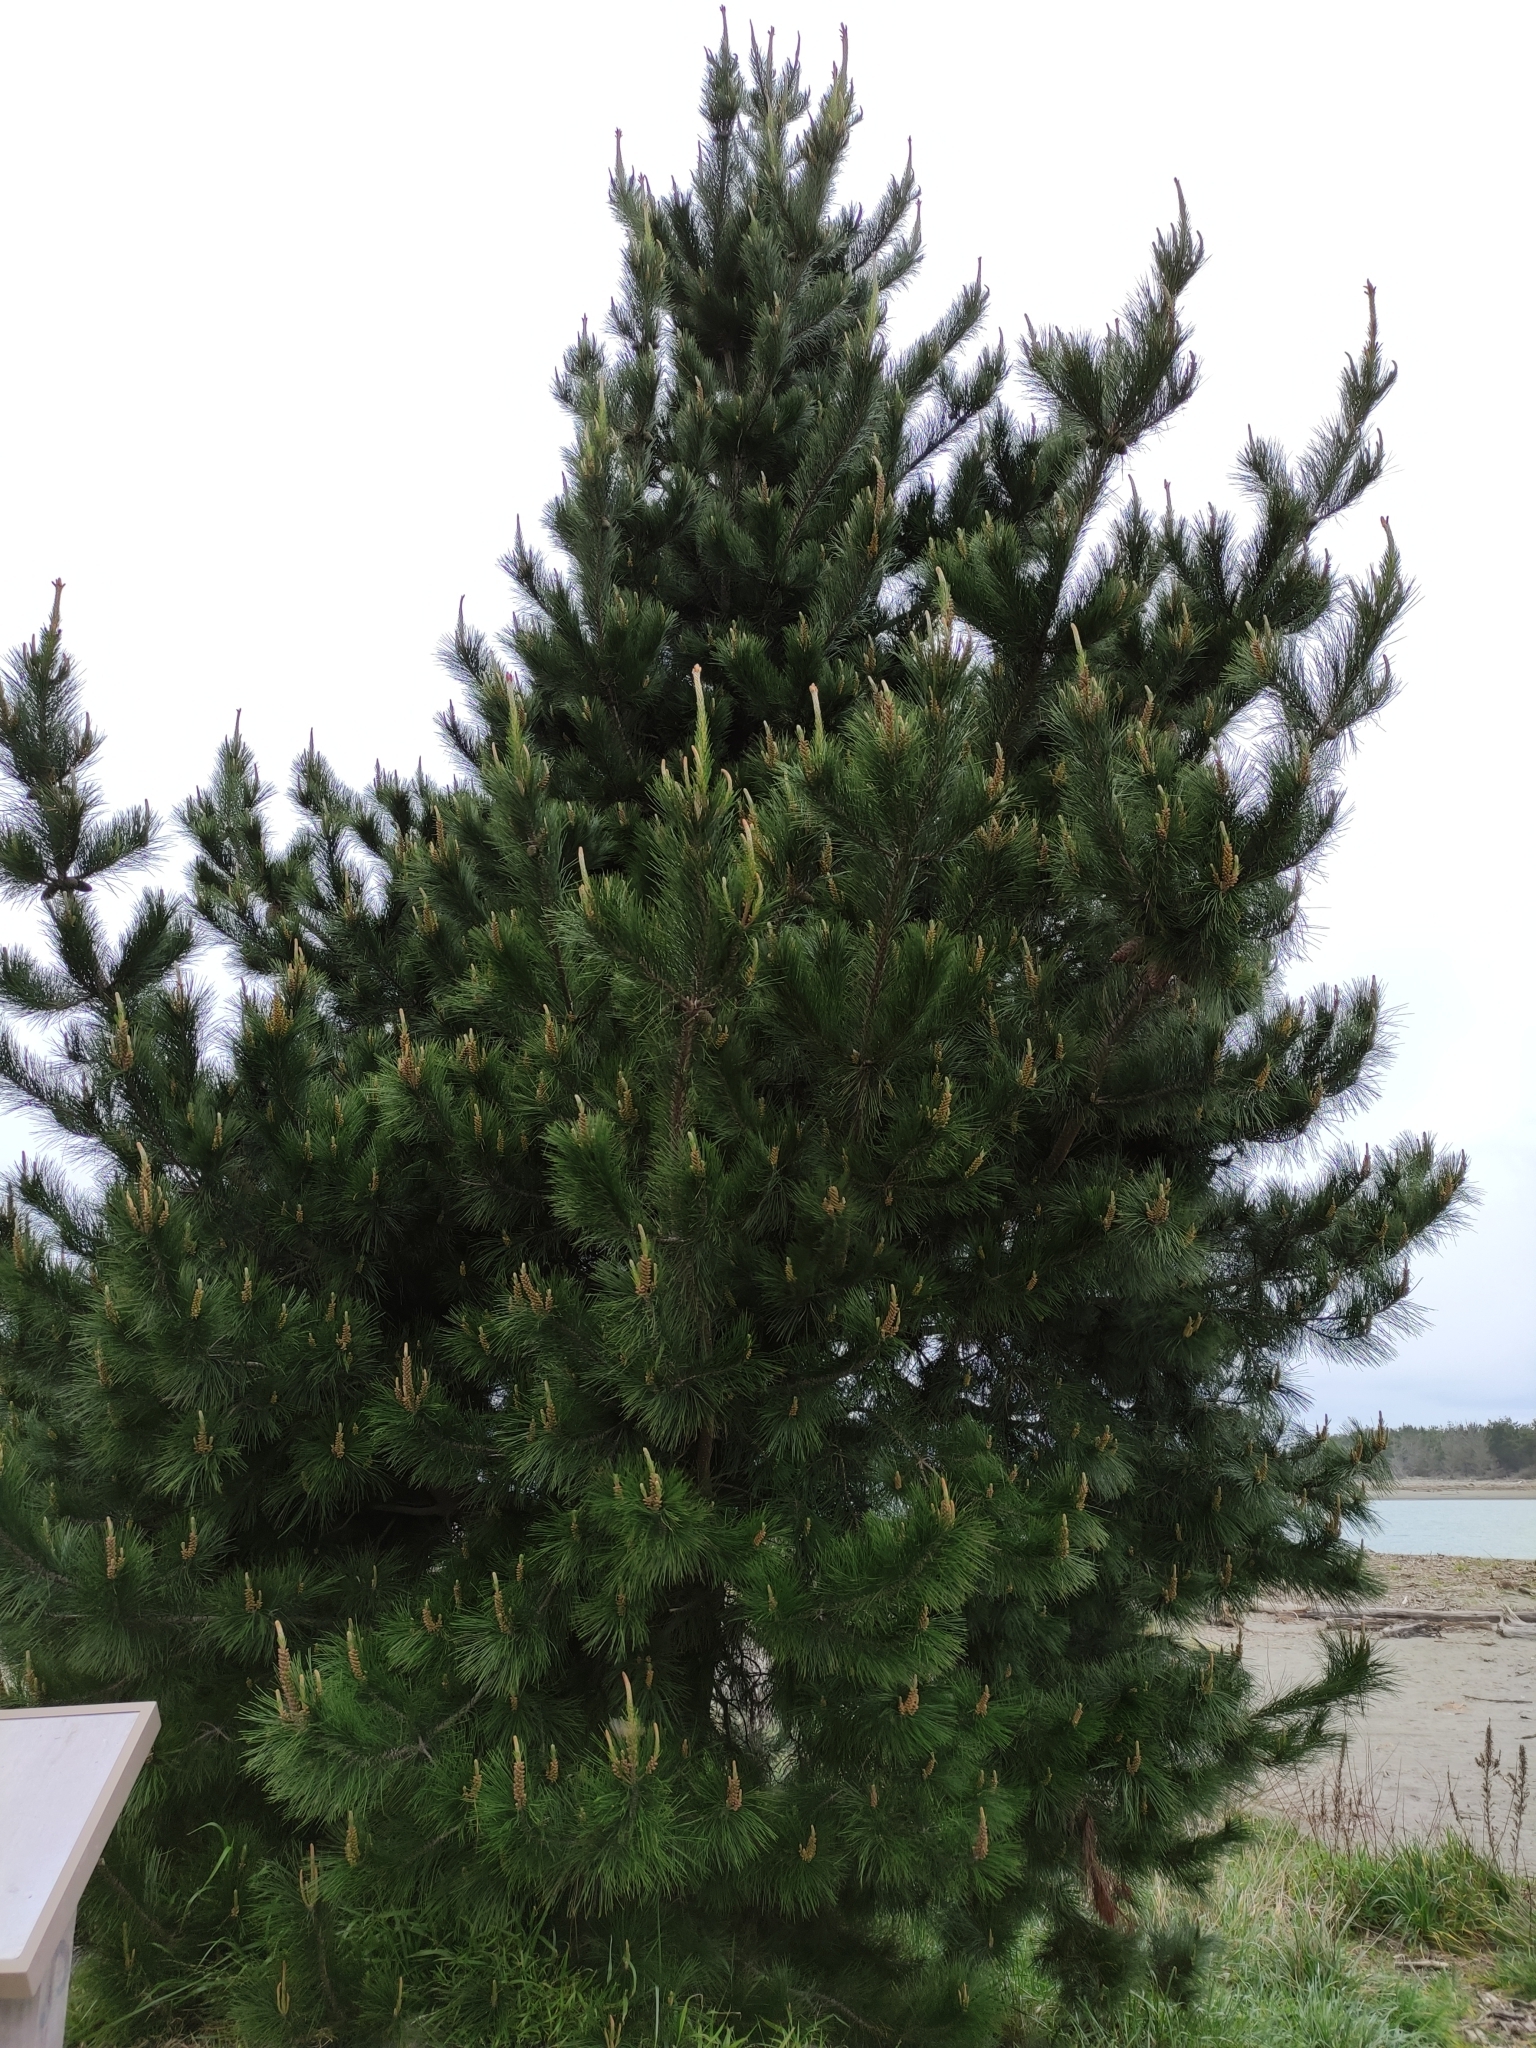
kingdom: Plantae
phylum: Tracheophyta
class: Pinopsida
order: Pinales
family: Pinaceae
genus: Pinus
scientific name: Pinus radiata
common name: Monterey pine
